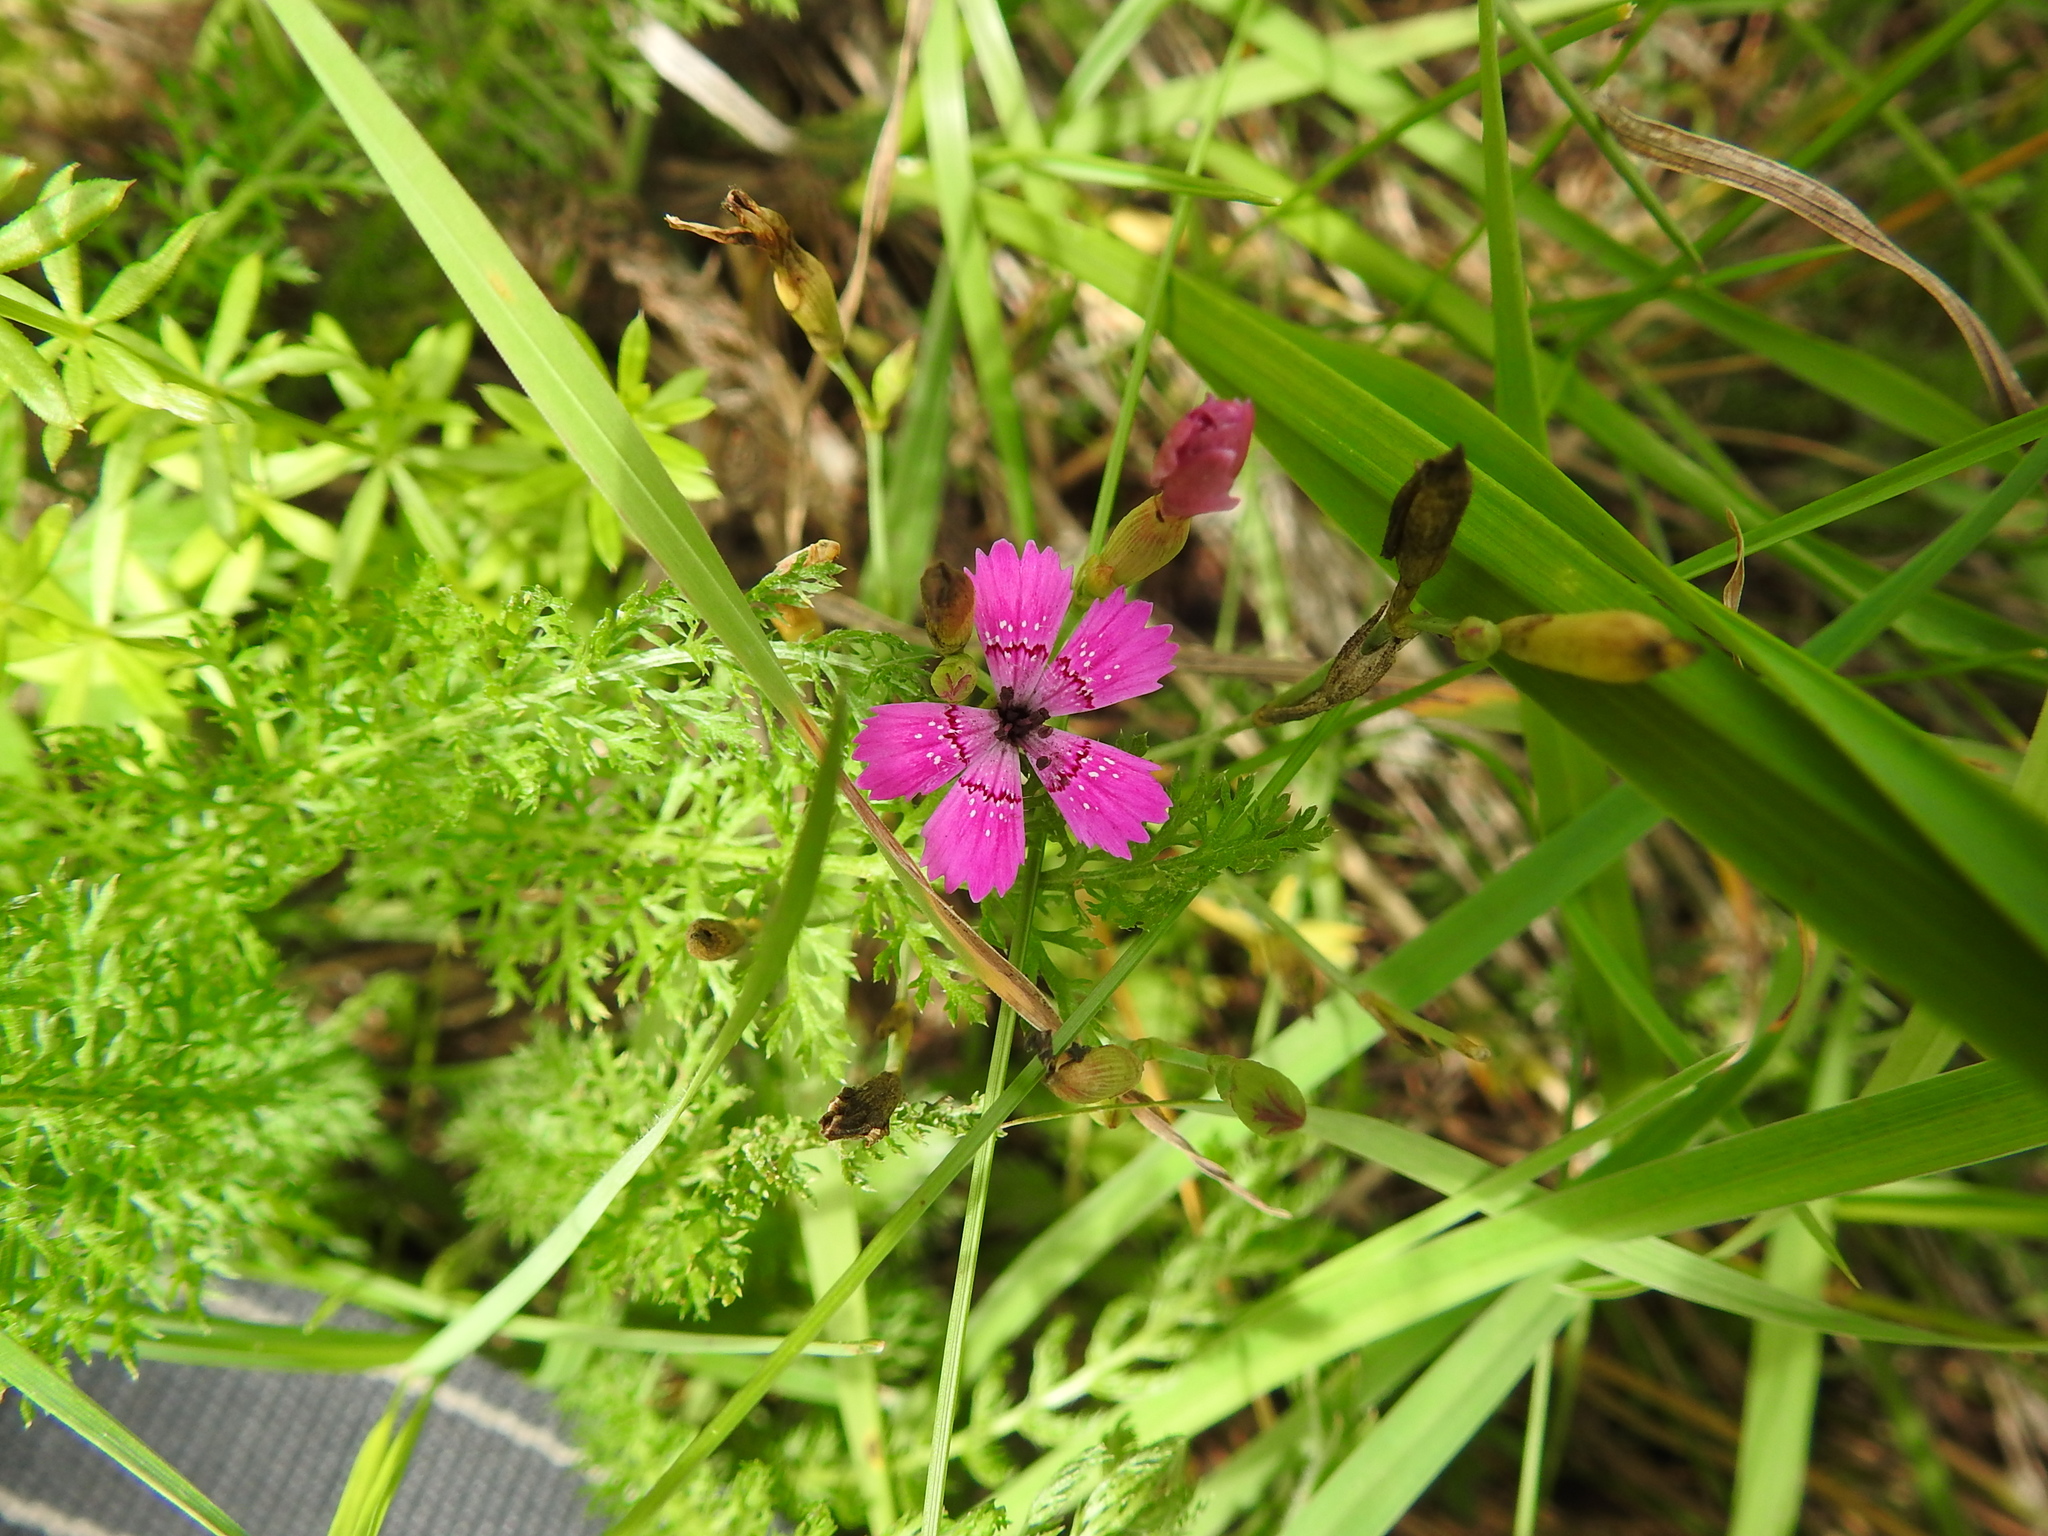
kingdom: Plantae
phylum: Tracheophyta
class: Magnoliopsida
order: Caryophyllales
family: Caryophyllaceae
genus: Dianthus
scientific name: Dianthus deltoides
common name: Maiden pink
